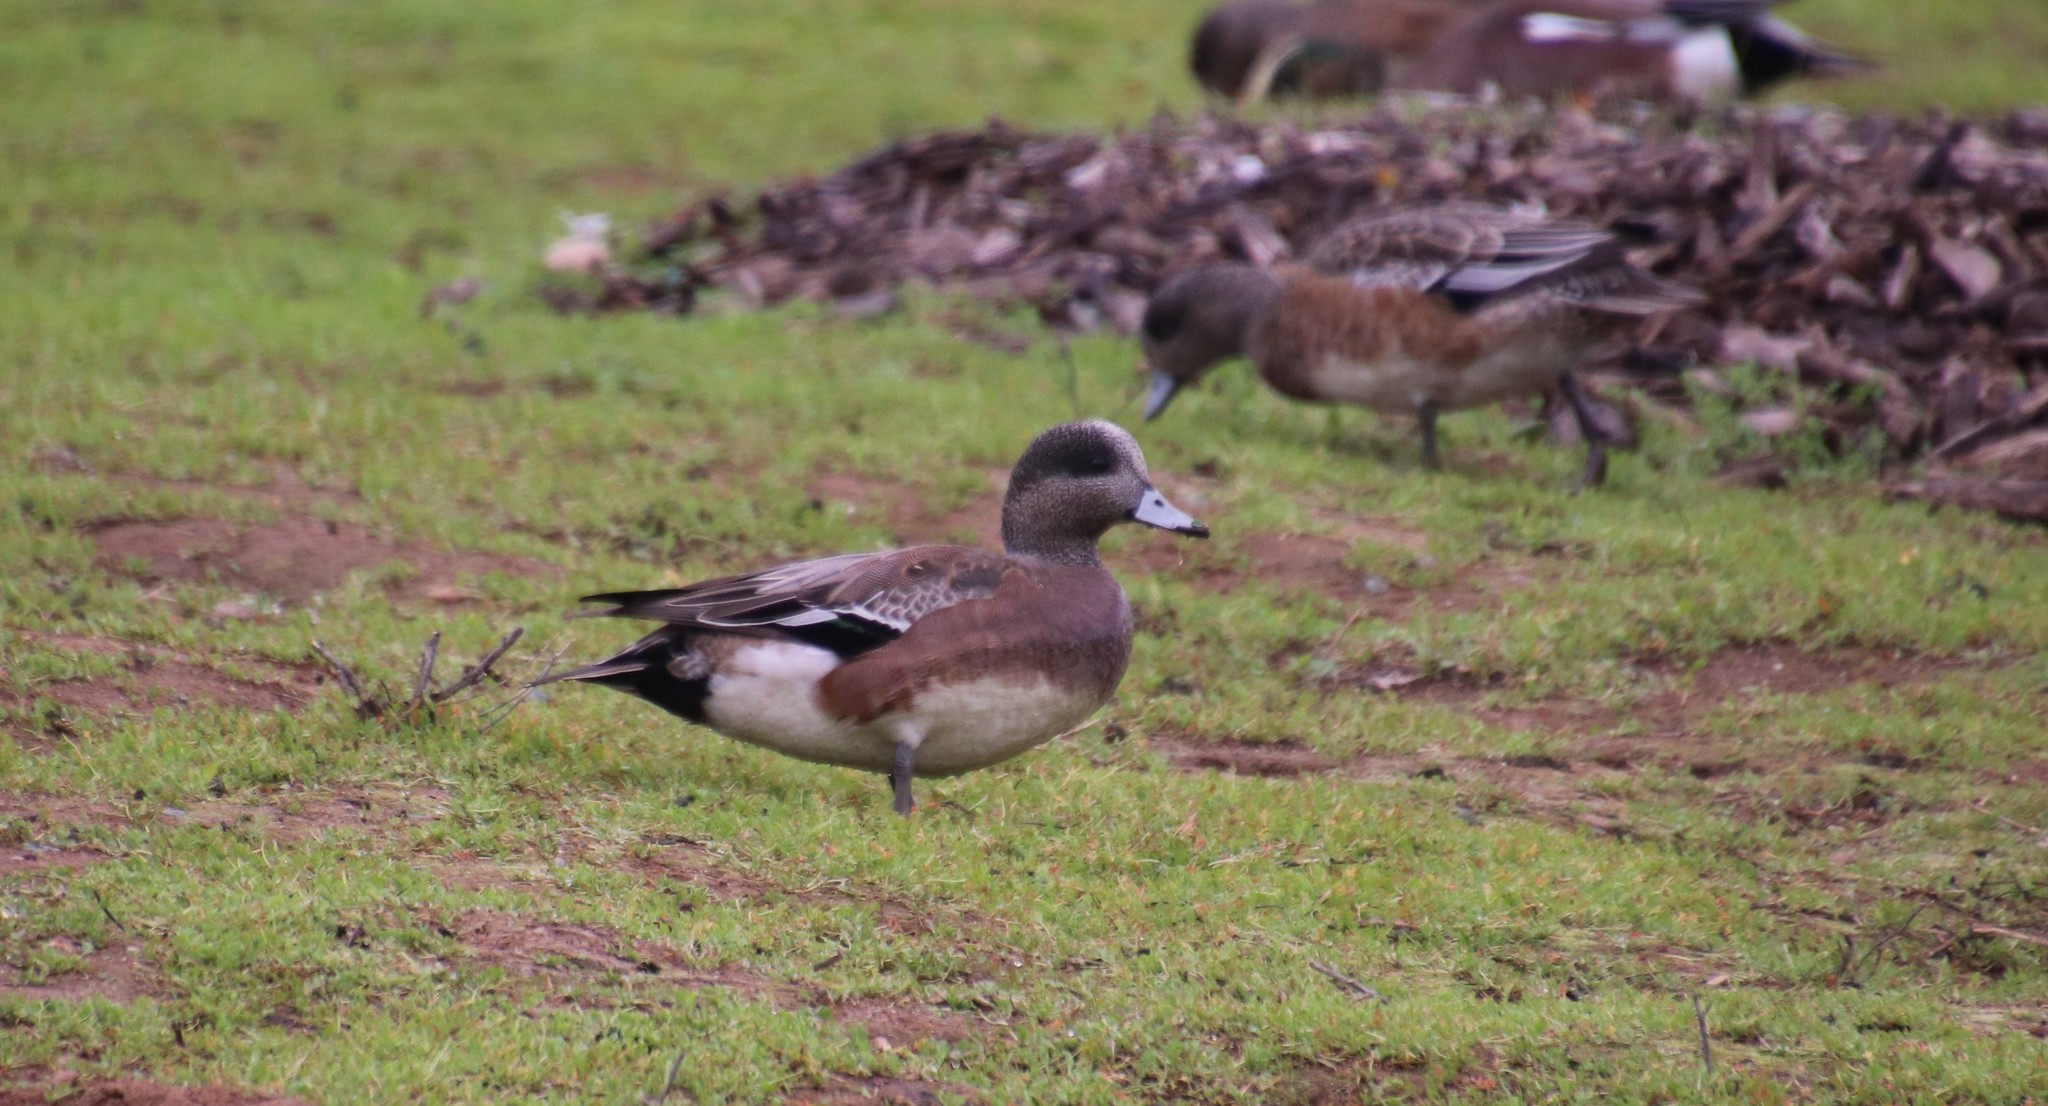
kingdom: Animalia
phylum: Chordata
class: Aves
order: Anseriformes
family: Anatidae
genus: Mareca
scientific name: Mareca americana
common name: American wigeon
